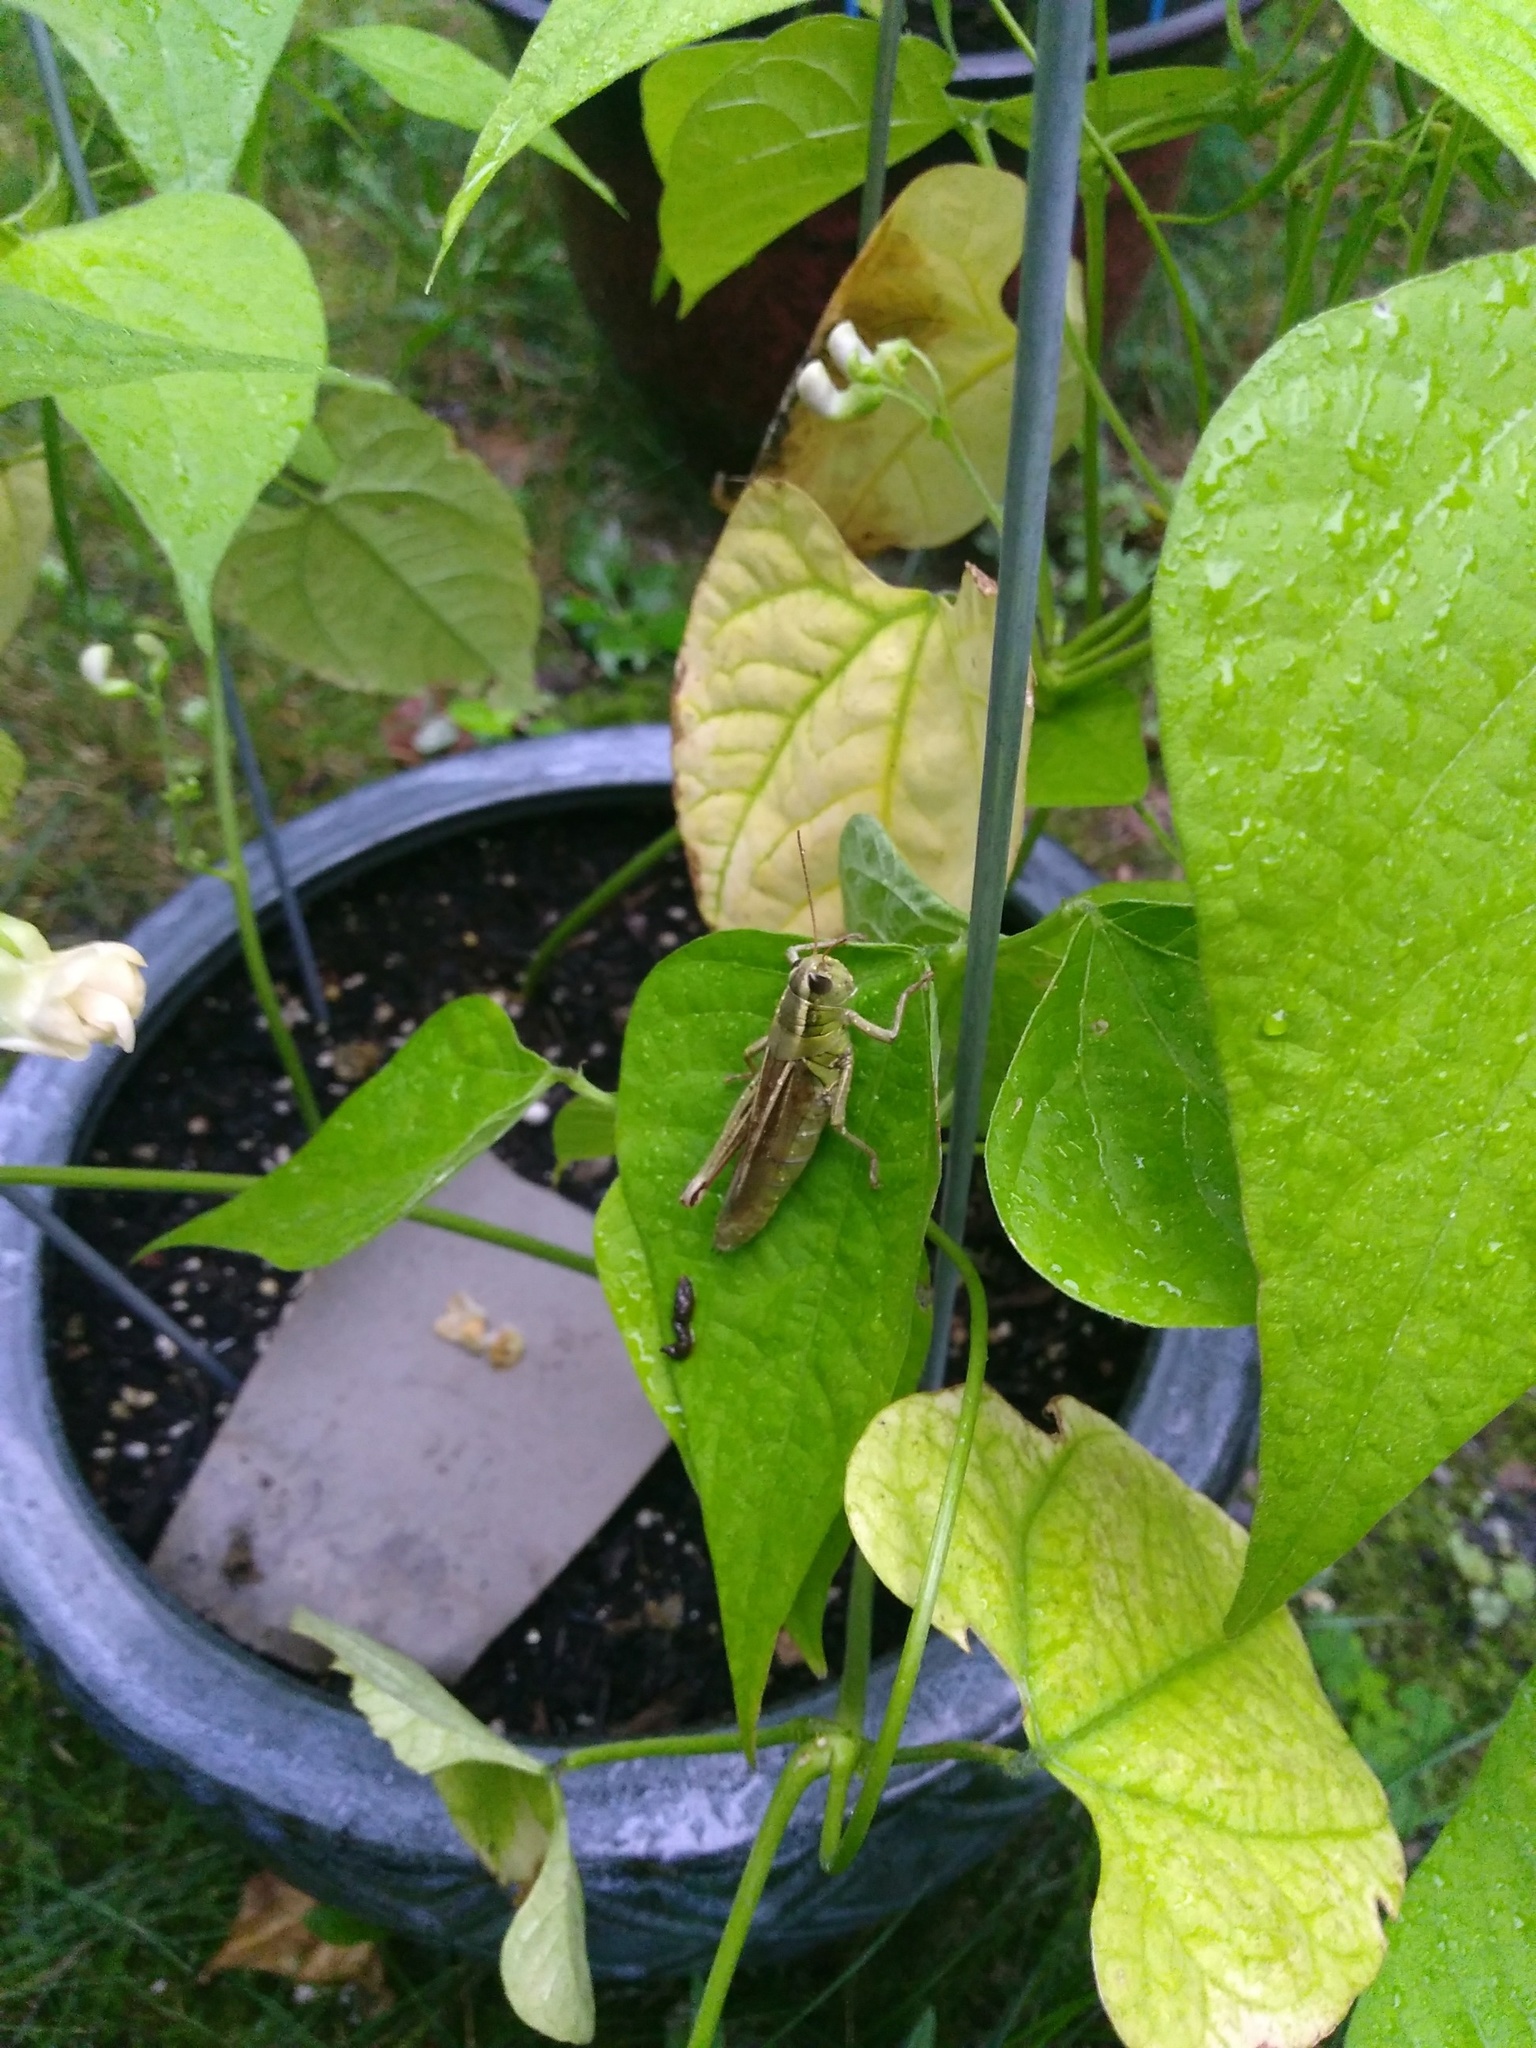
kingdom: Animalia
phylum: Arthropoda
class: Insecta
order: Orthoptera
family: Acrididae
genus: Melanoplus
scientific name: Melanoplus bivittatus
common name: Two-striped grasshopper
